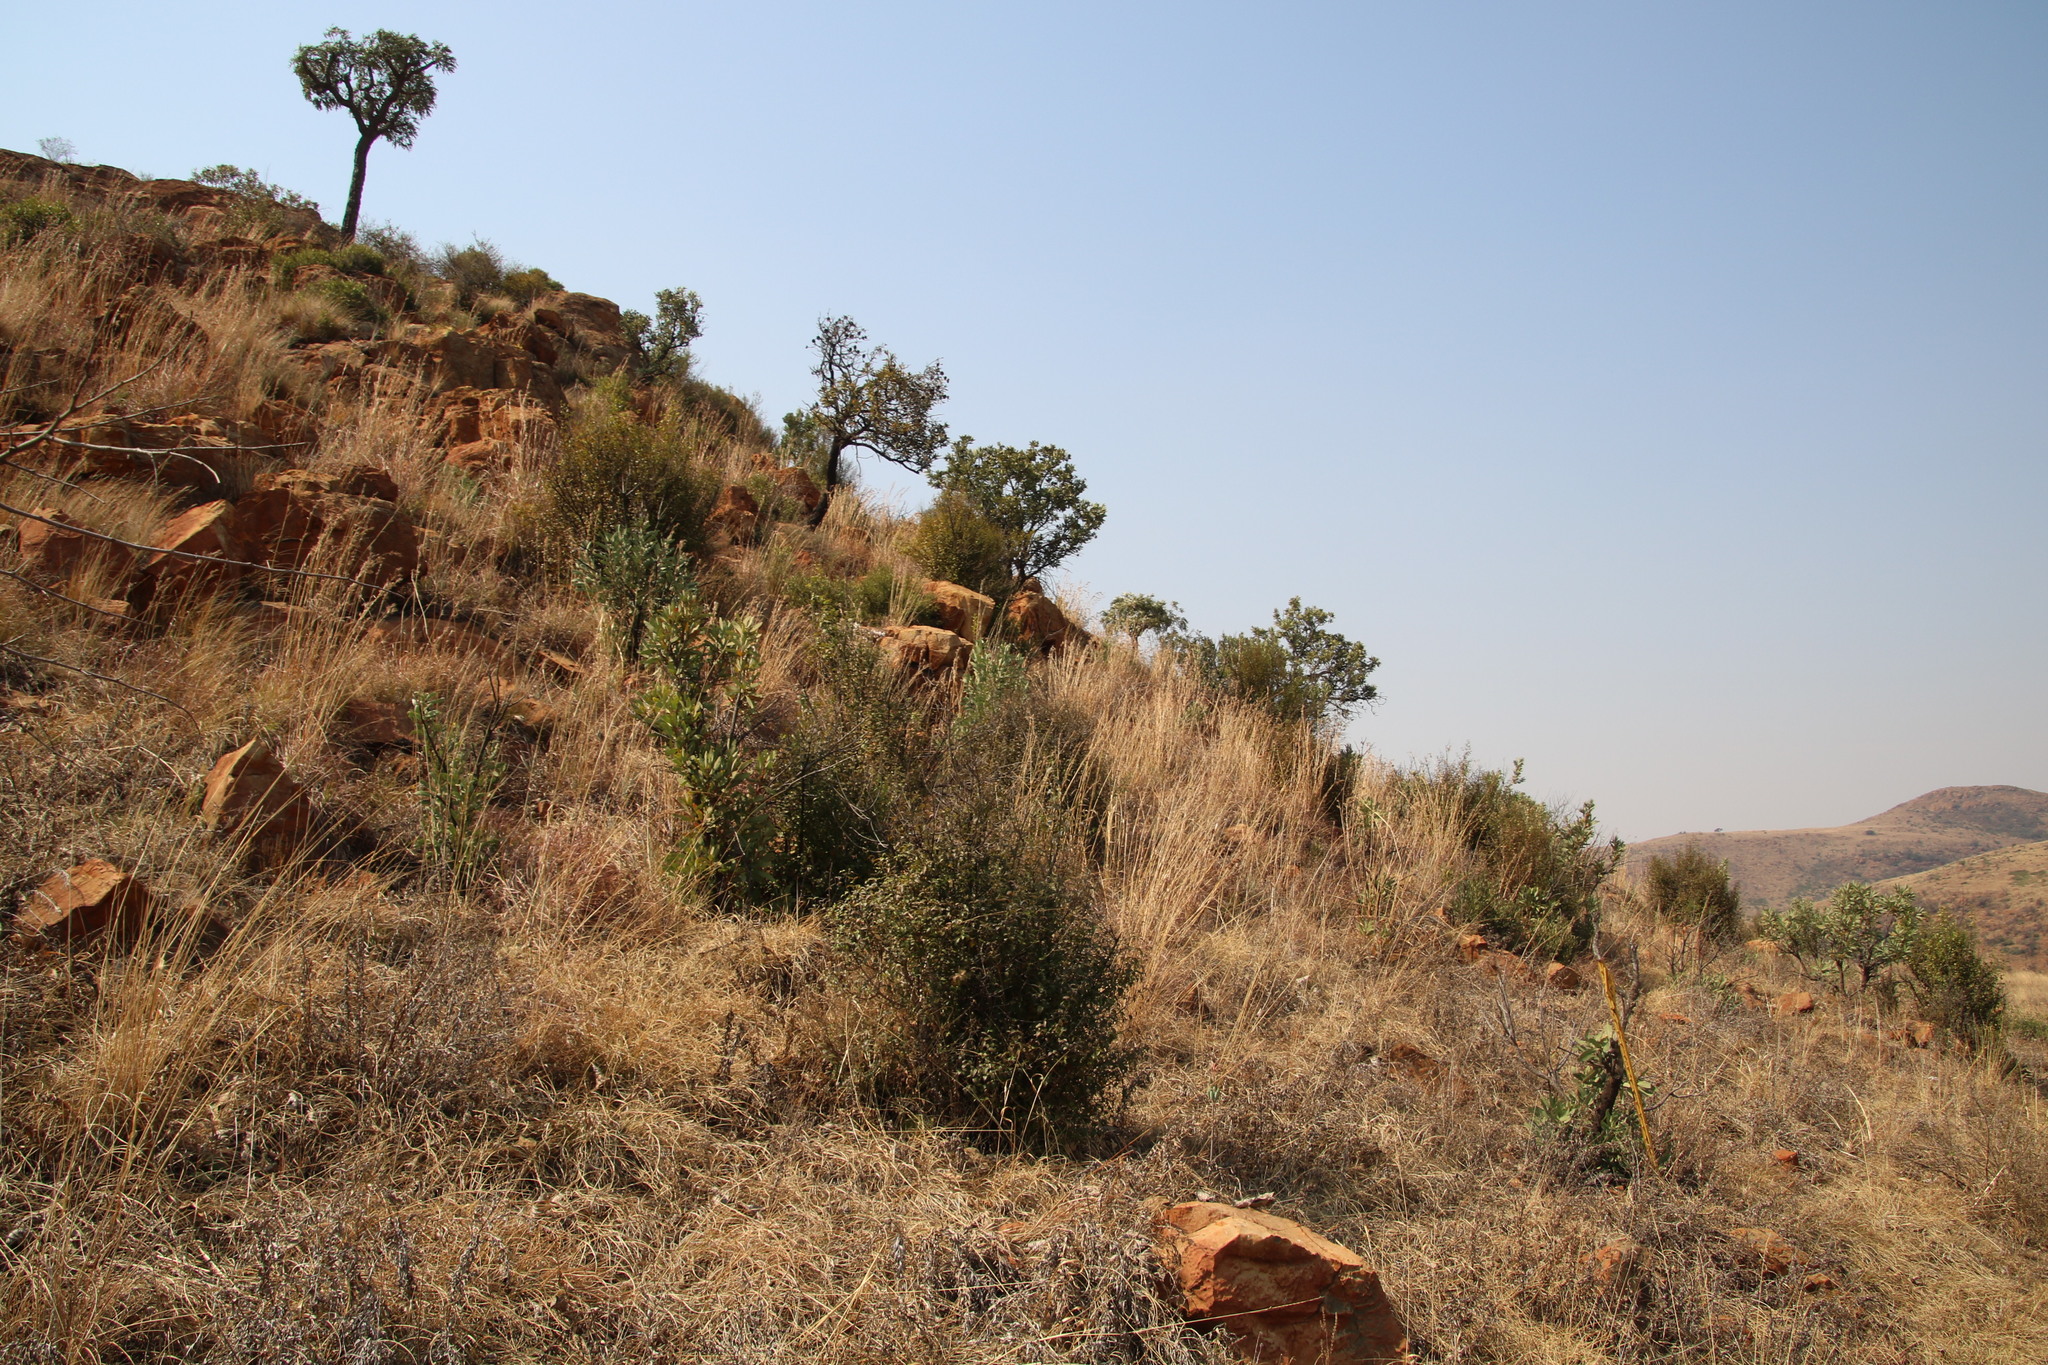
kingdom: Plantae
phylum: Tracheophyta
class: Magnoliopsida
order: Proteales
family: Proteaceae
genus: Protea
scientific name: Protea caffra
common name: Common sugarbush
